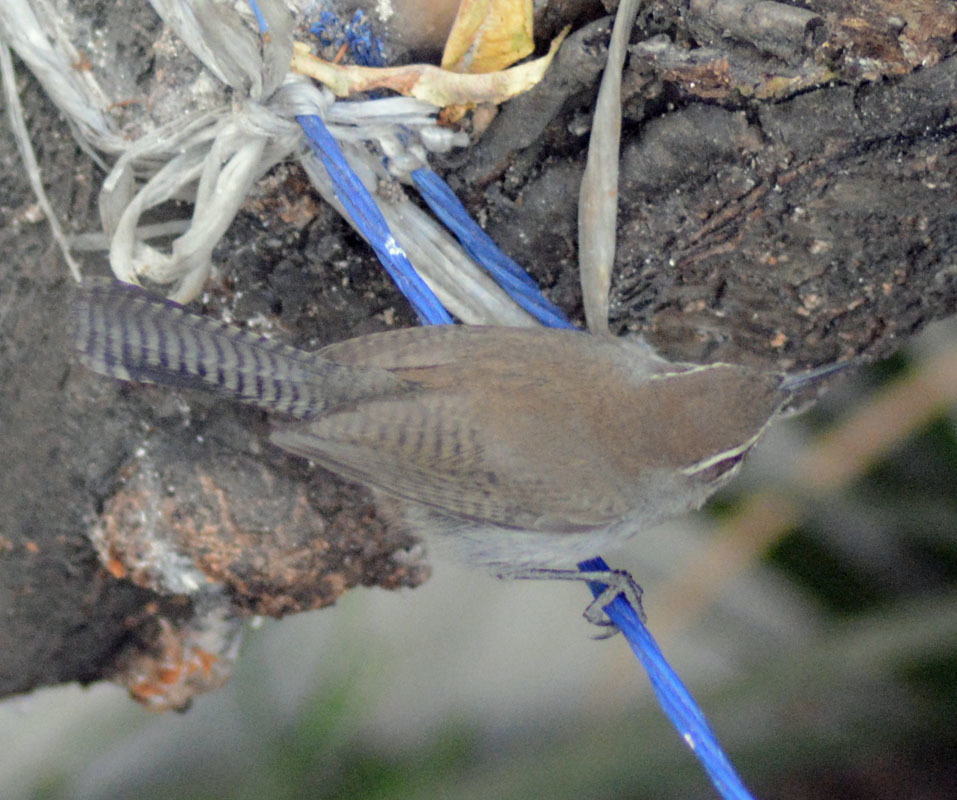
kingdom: Animalia
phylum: Chordata
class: Aves
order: Passeriformes
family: Troglodytidae
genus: Thryomanes
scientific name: Thryomanes bewickii
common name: Bewick's wren
